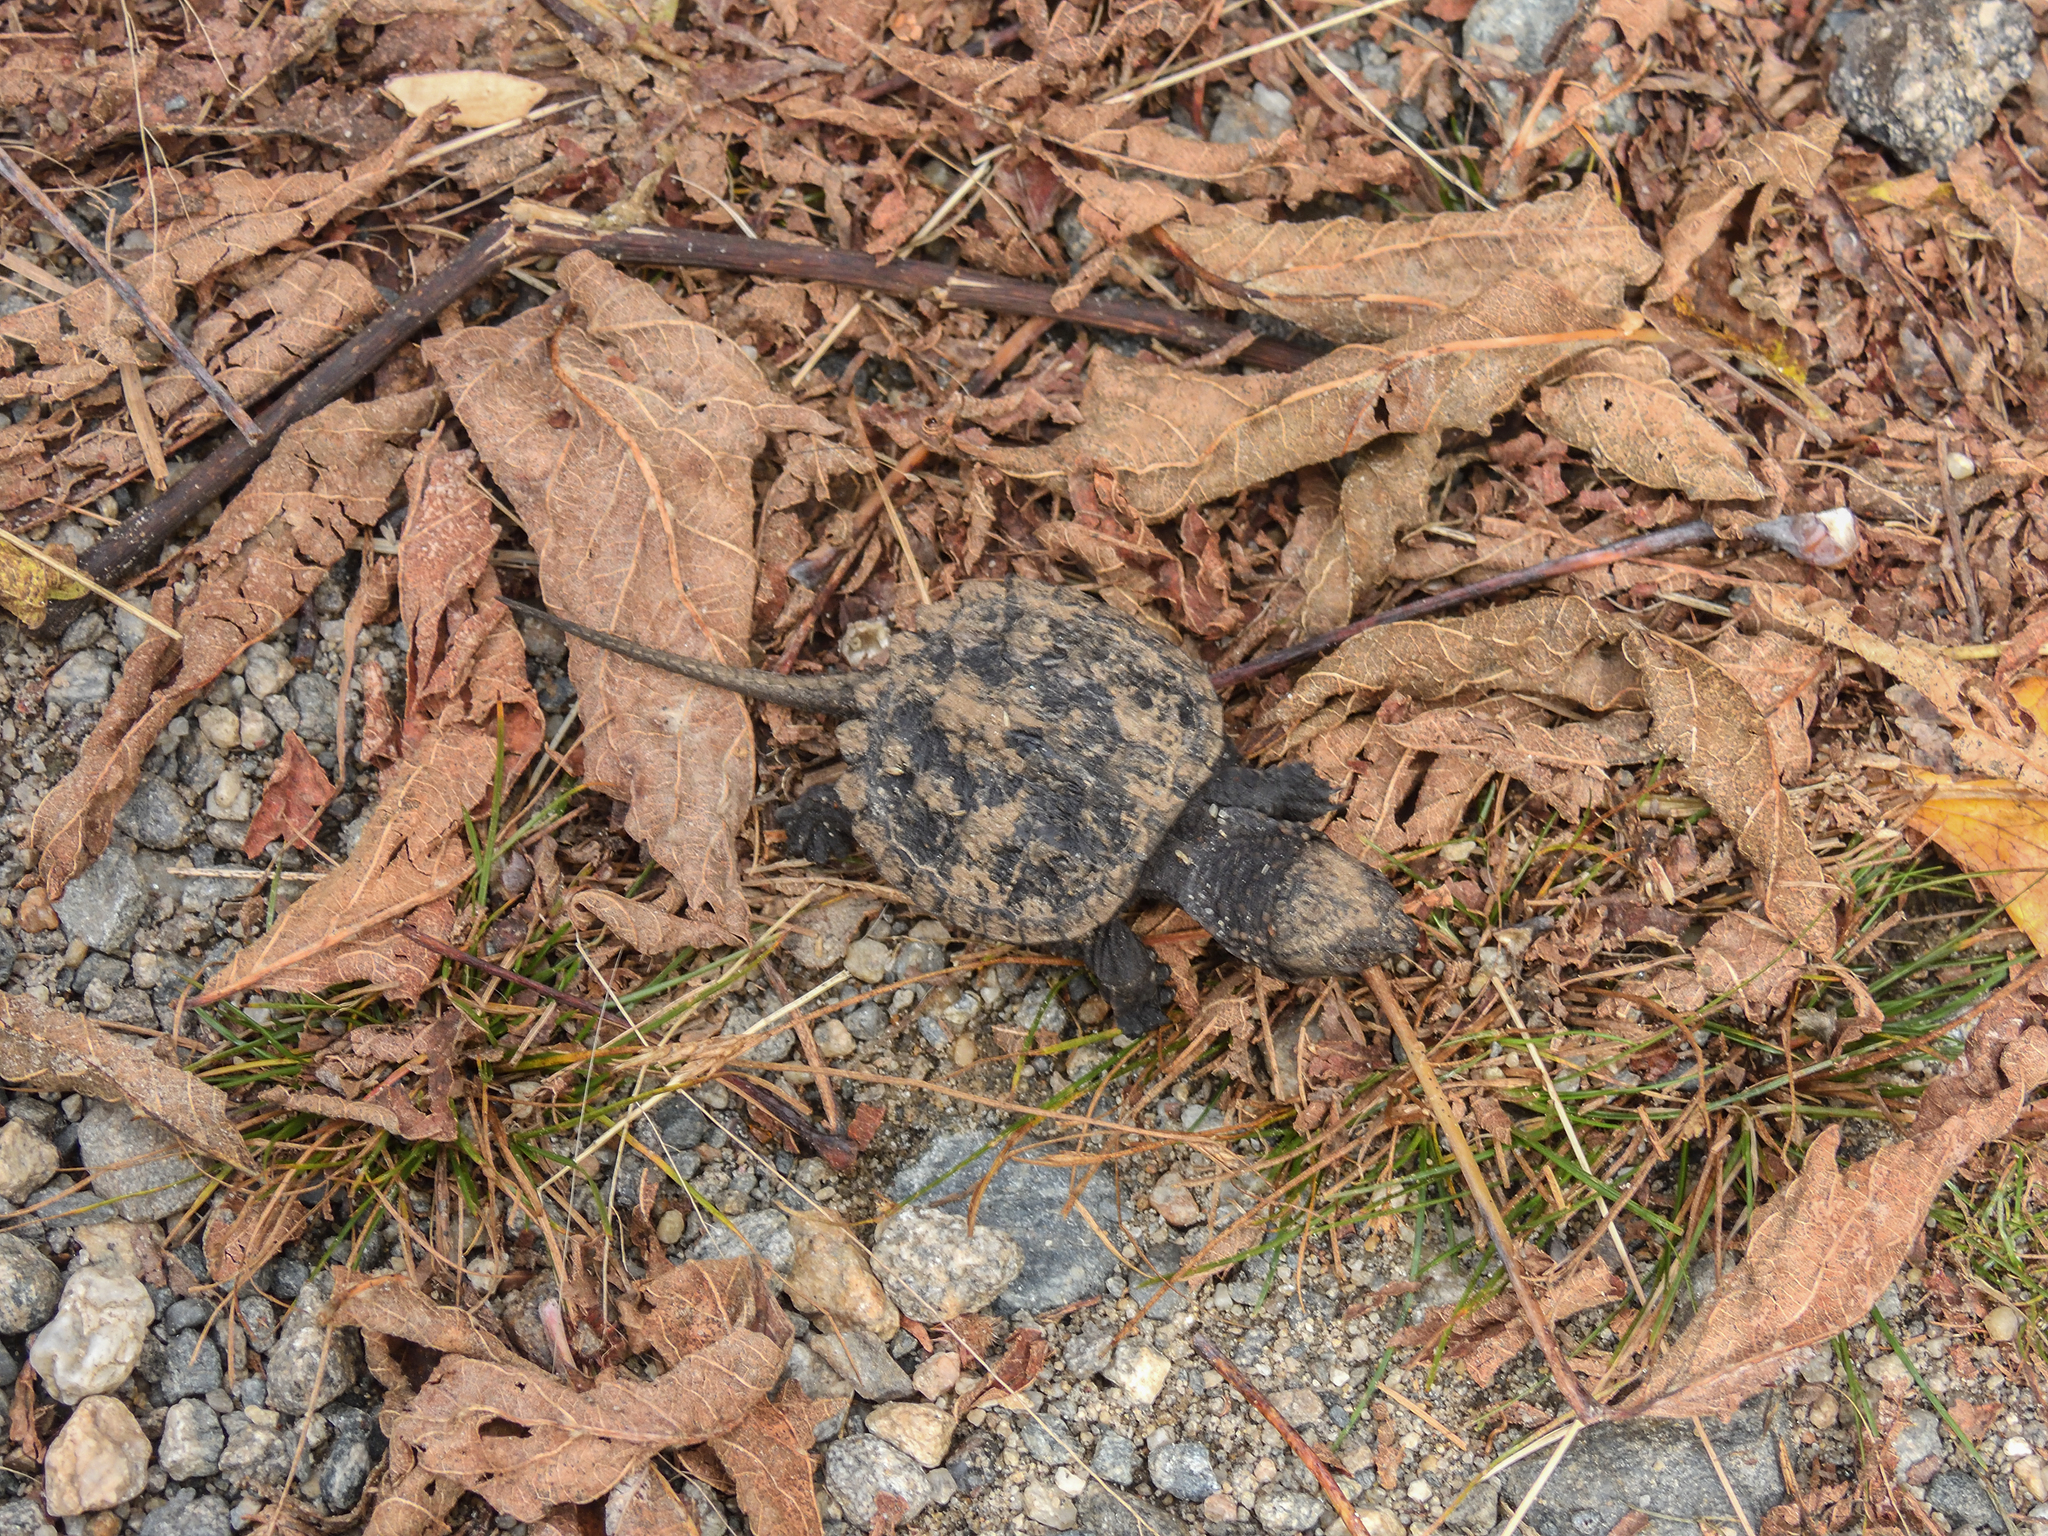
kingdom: Animalia
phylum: Chordata
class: Testudines
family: Chelydridae
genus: Chelydra
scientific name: Chelydra serpentina
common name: Common snapping turtle
